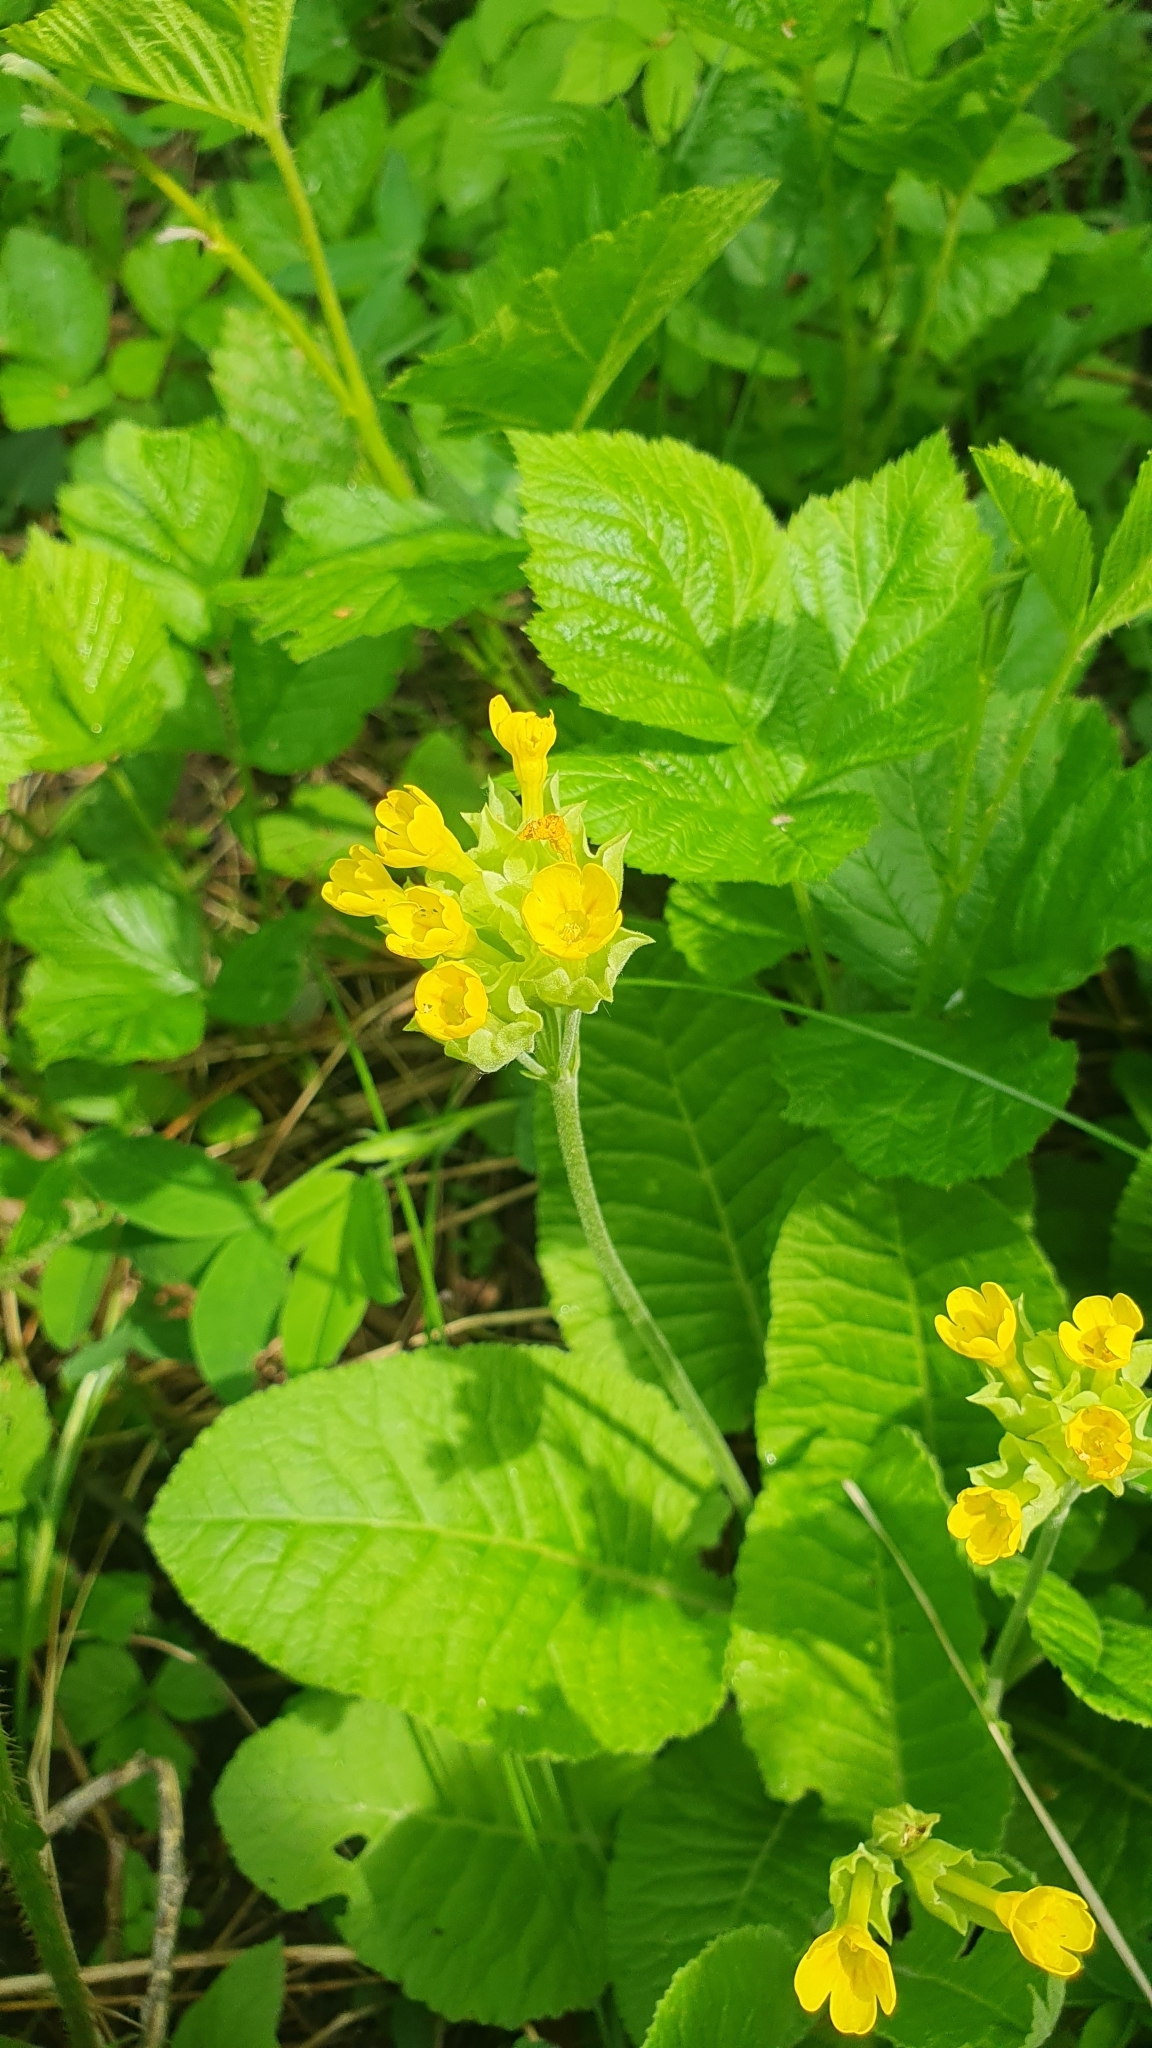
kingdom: Plantae
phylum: Tracheophyta
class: Magnoliopsida
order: Ericales
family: Primulaceae
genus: Primula
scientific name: Primula veris
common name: Cowslip
